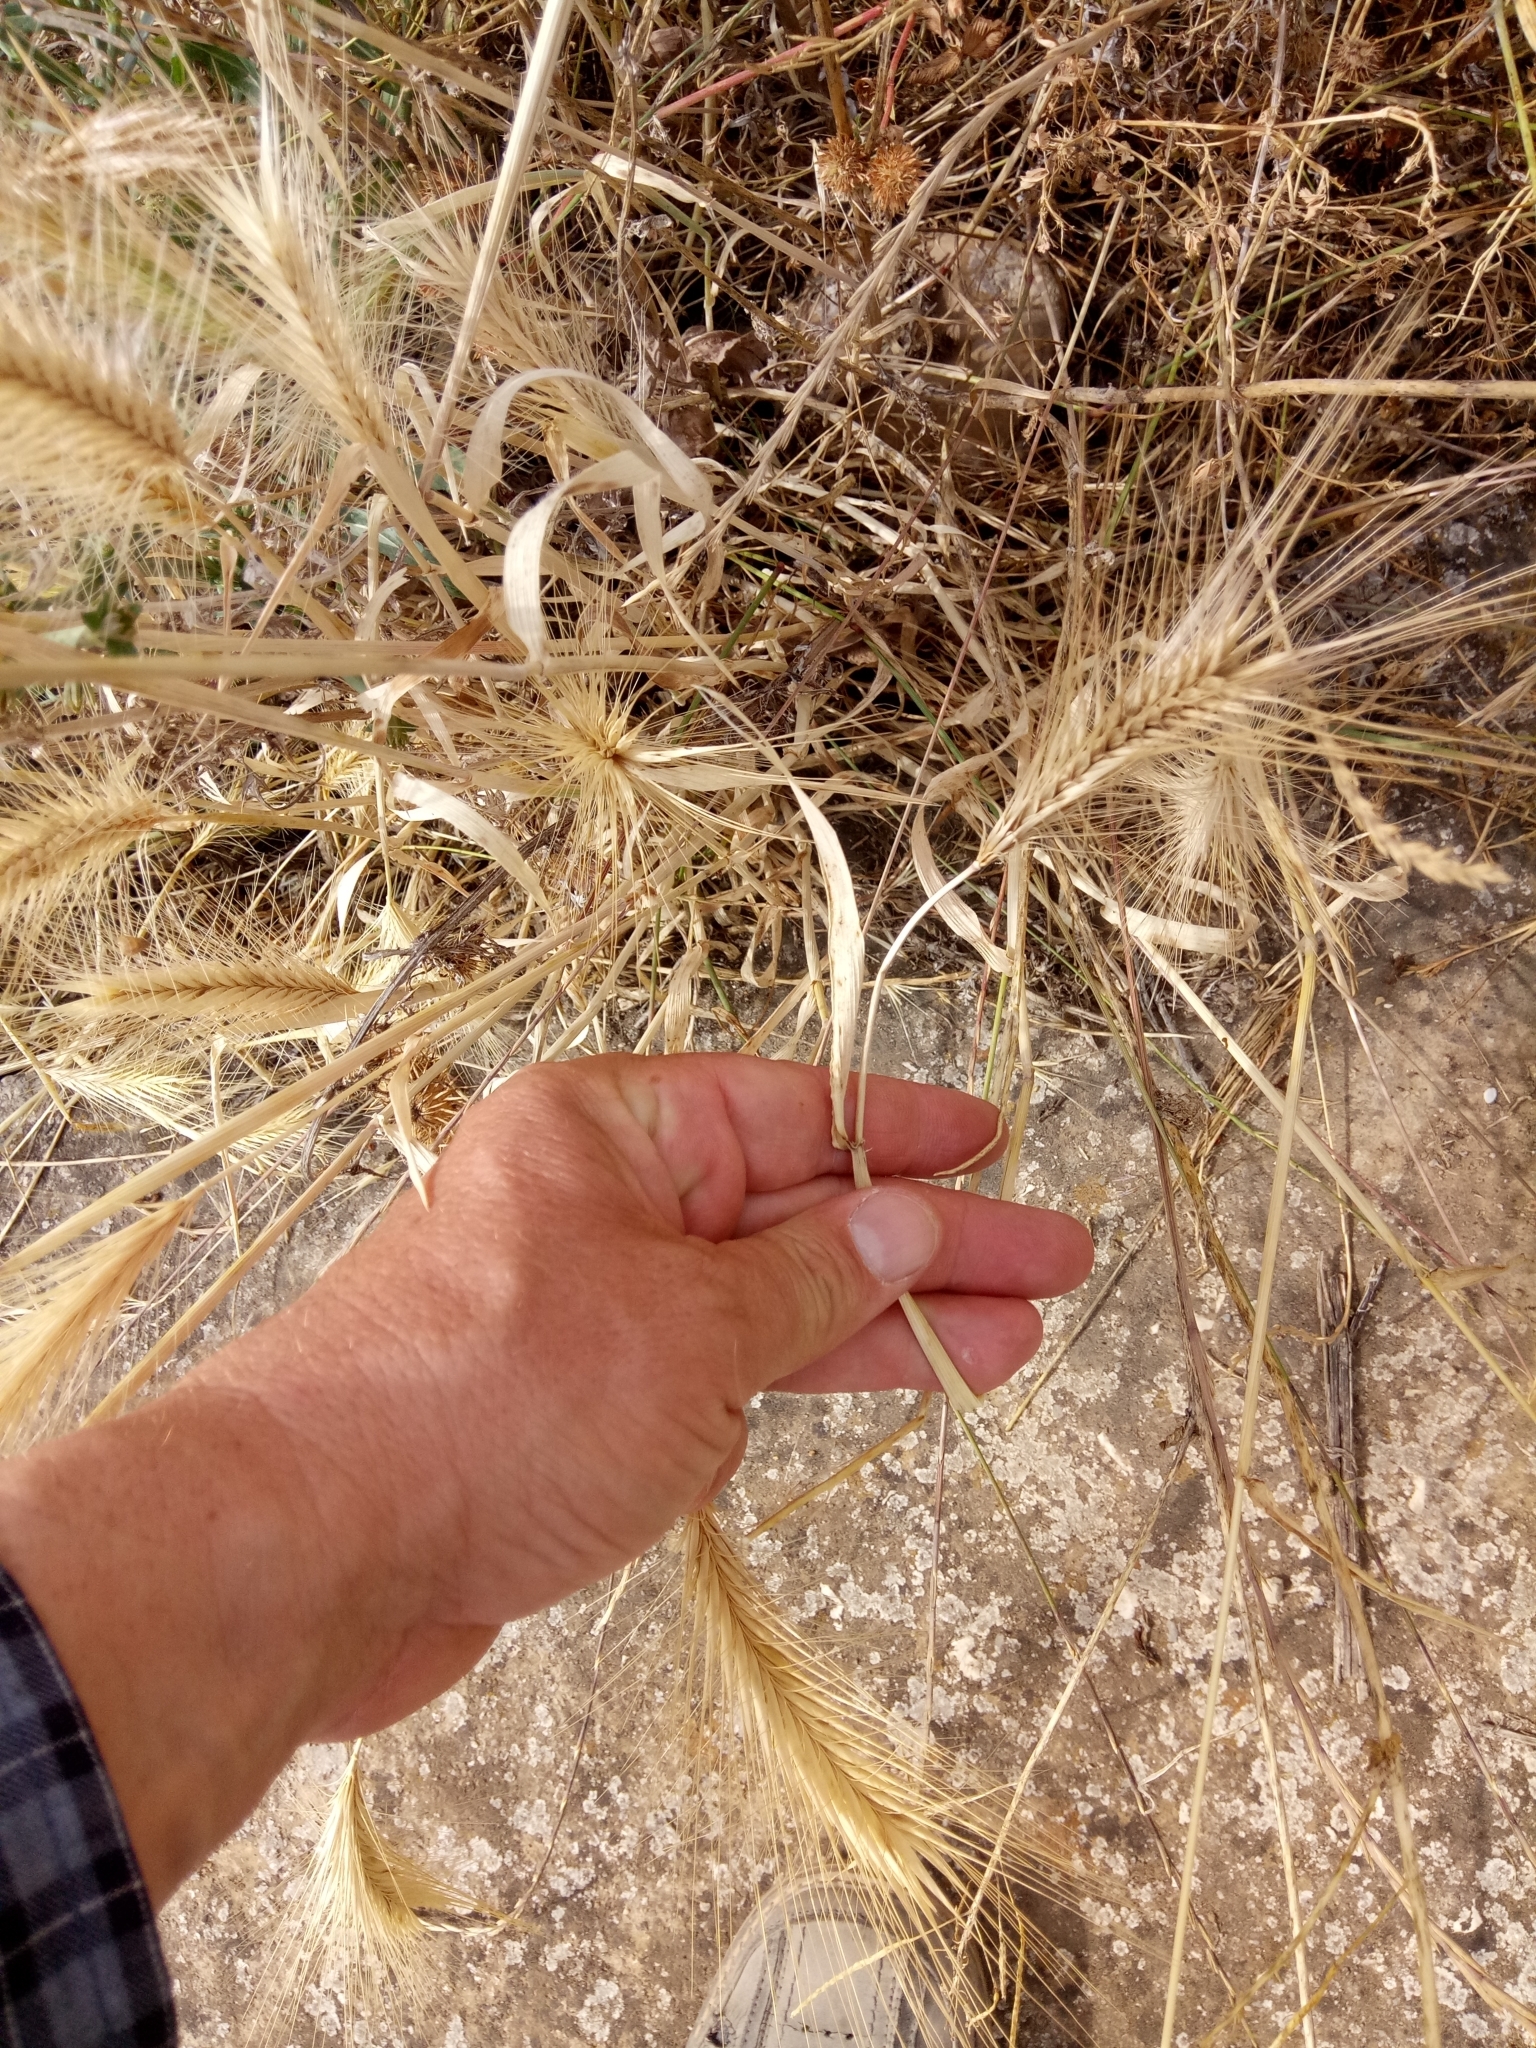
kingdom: Plantae
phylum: Tracheophyta
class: Liliopsida
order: Poales
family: Poaceae
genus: Hordeum
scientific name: Hordeum murinum
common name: Wall barley
